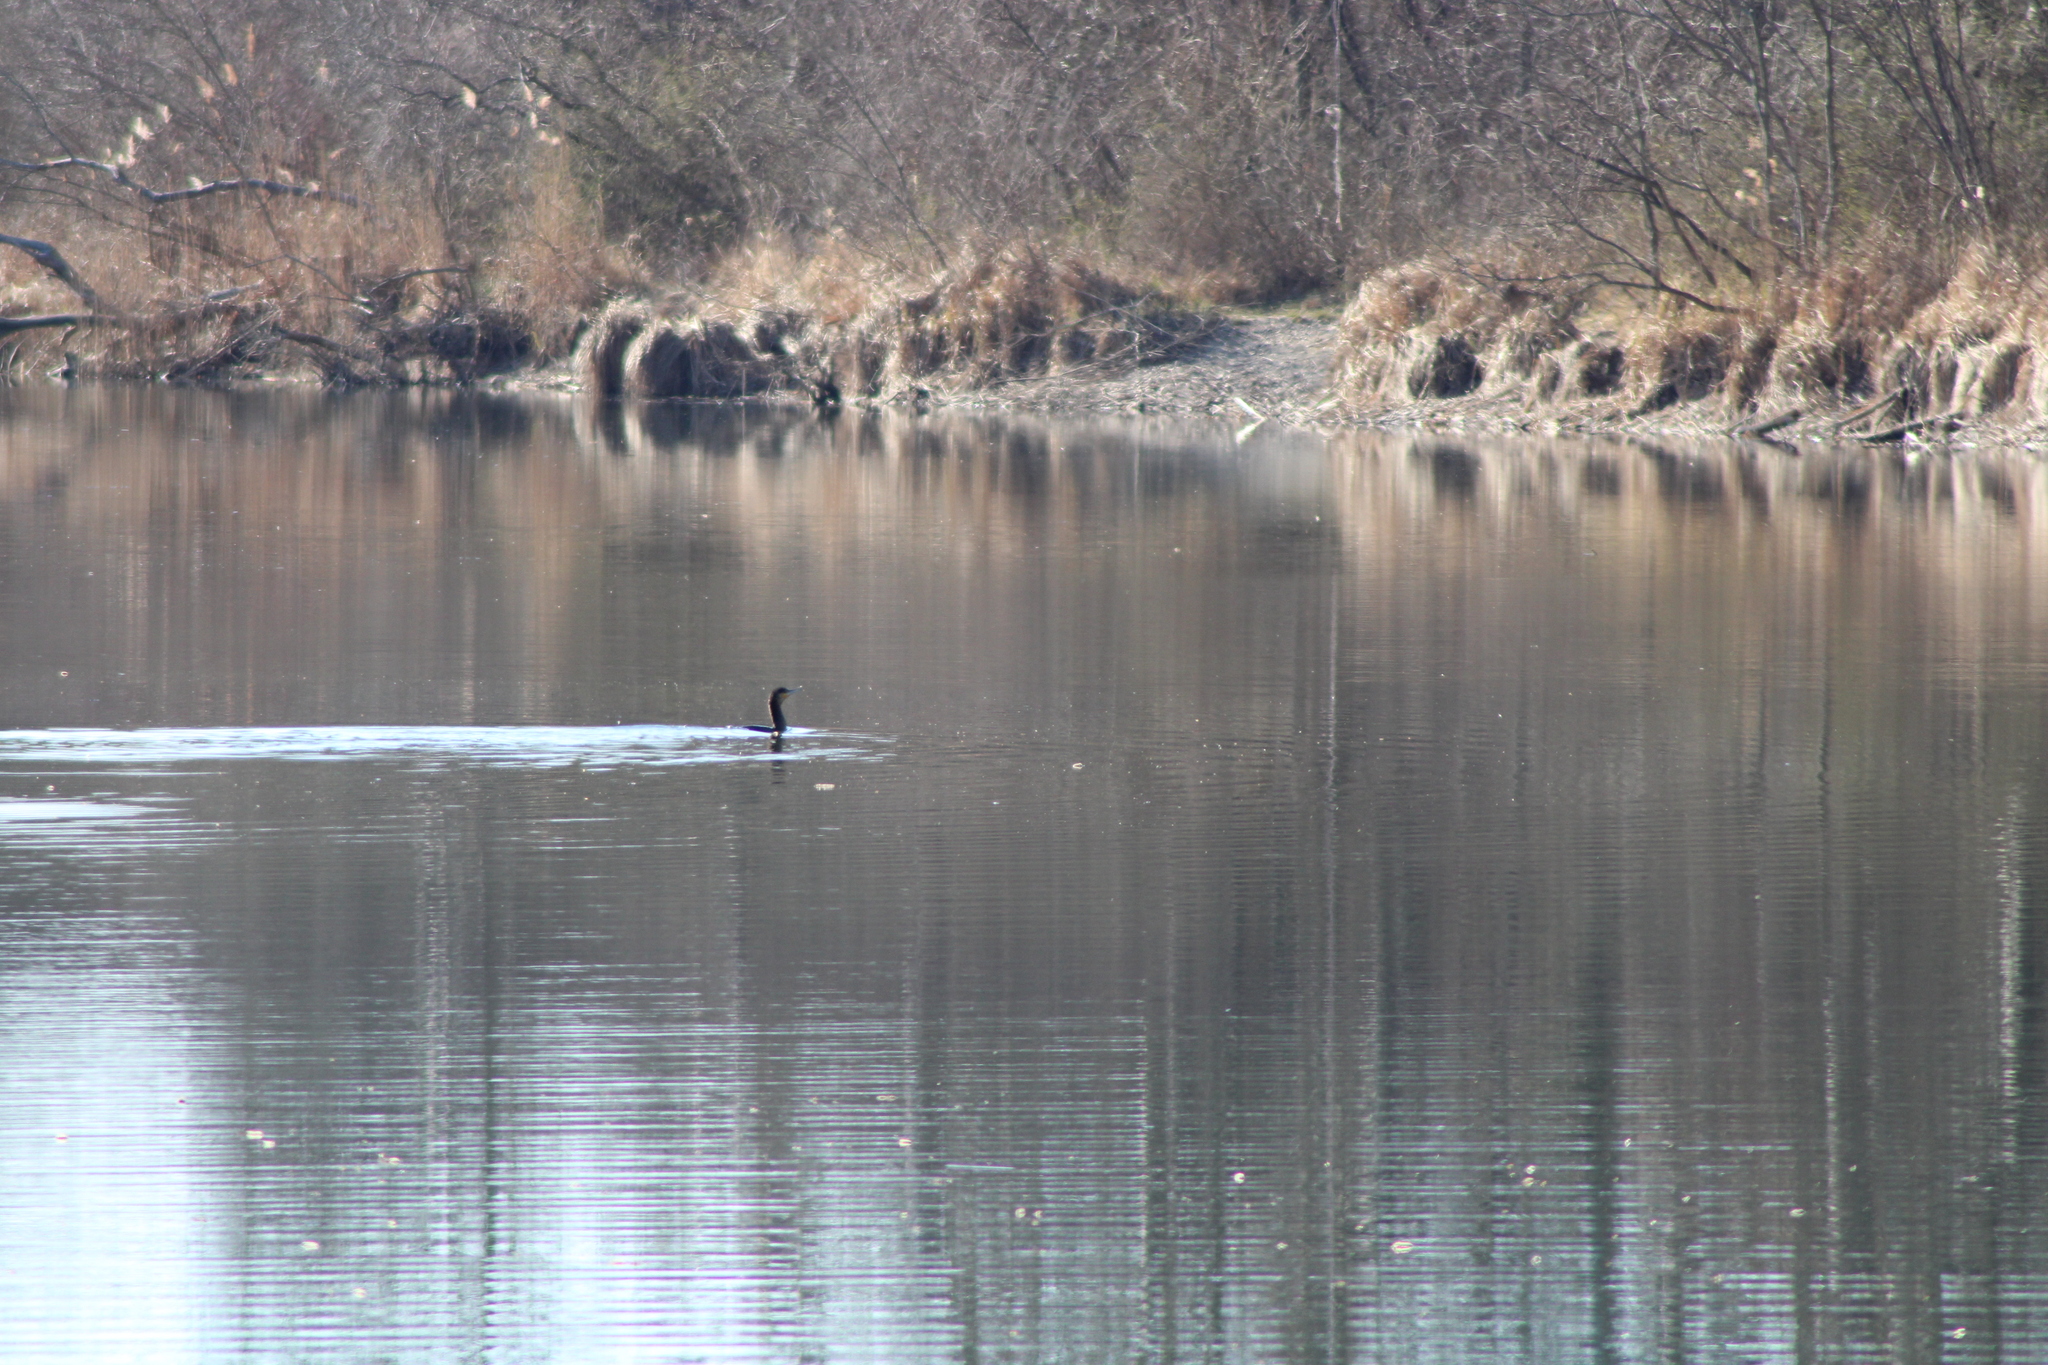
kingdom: Animalia
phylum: Chordata
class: Aves
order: Suliformes
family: Phalacrocoracidae
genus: Phalacrocorax
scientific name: Phalacrocorax carbo
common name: Great cormorant
